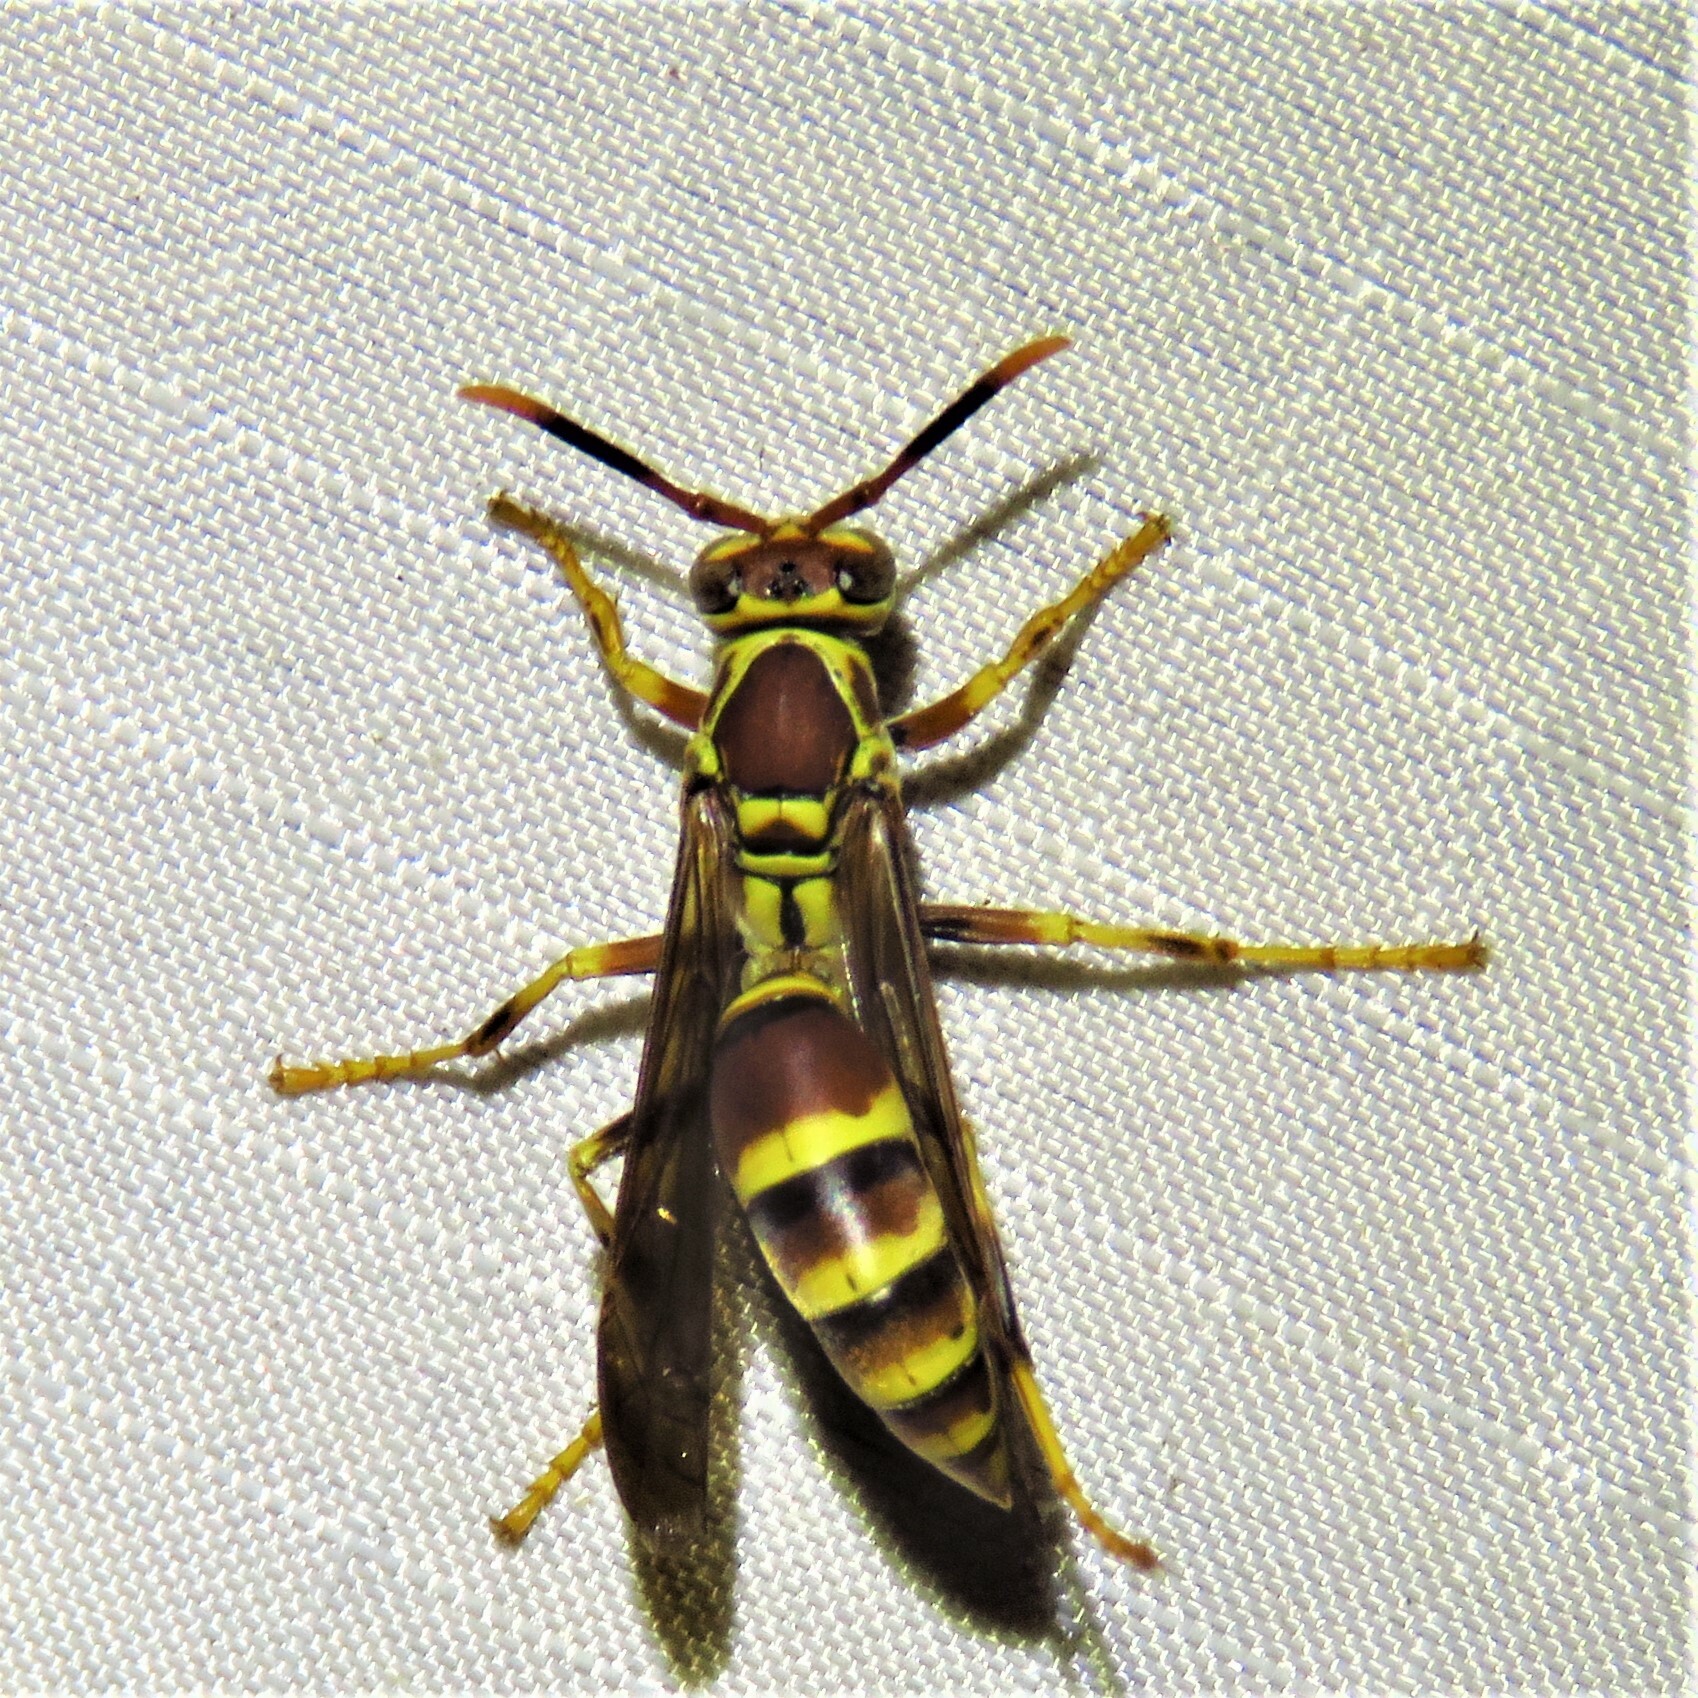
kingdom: Animalia
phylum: Arthropoda
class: Insecta
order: Hymenoptera
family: Eumenidae
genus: Polistes
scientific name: Polistes exclamans
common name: Paper wasp
